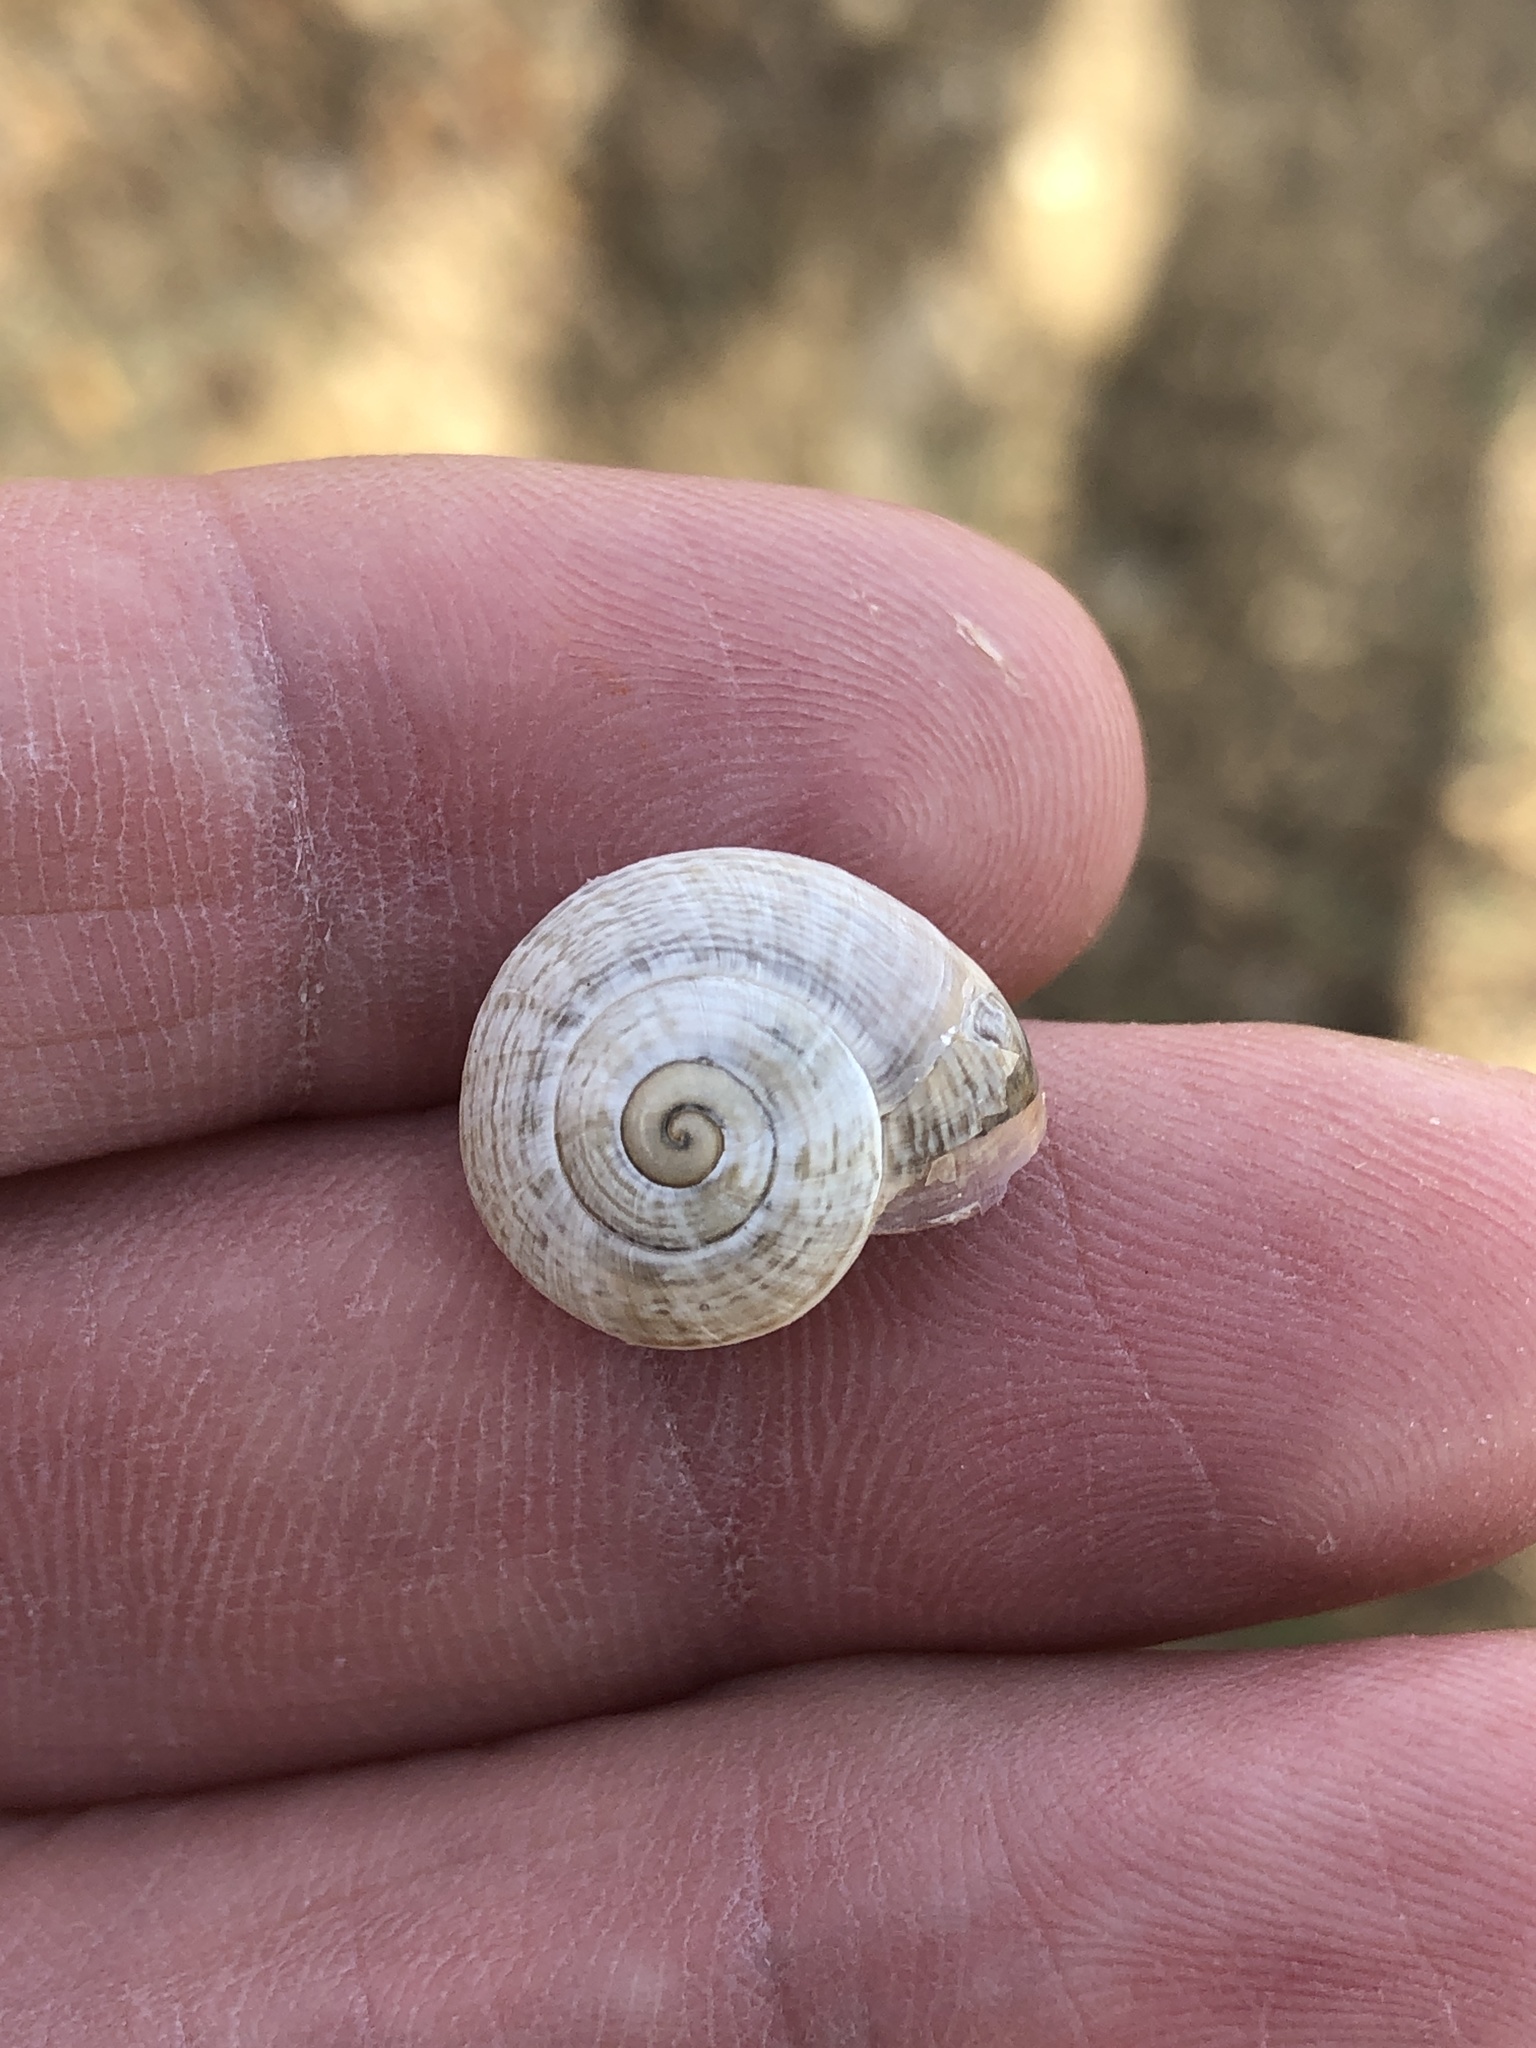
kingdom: Animalia
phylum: Mollusca
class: Gastropoda
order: Stylommatophora
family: Helicidae
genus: Otala
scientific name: Otala lactea
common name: Milk snail
